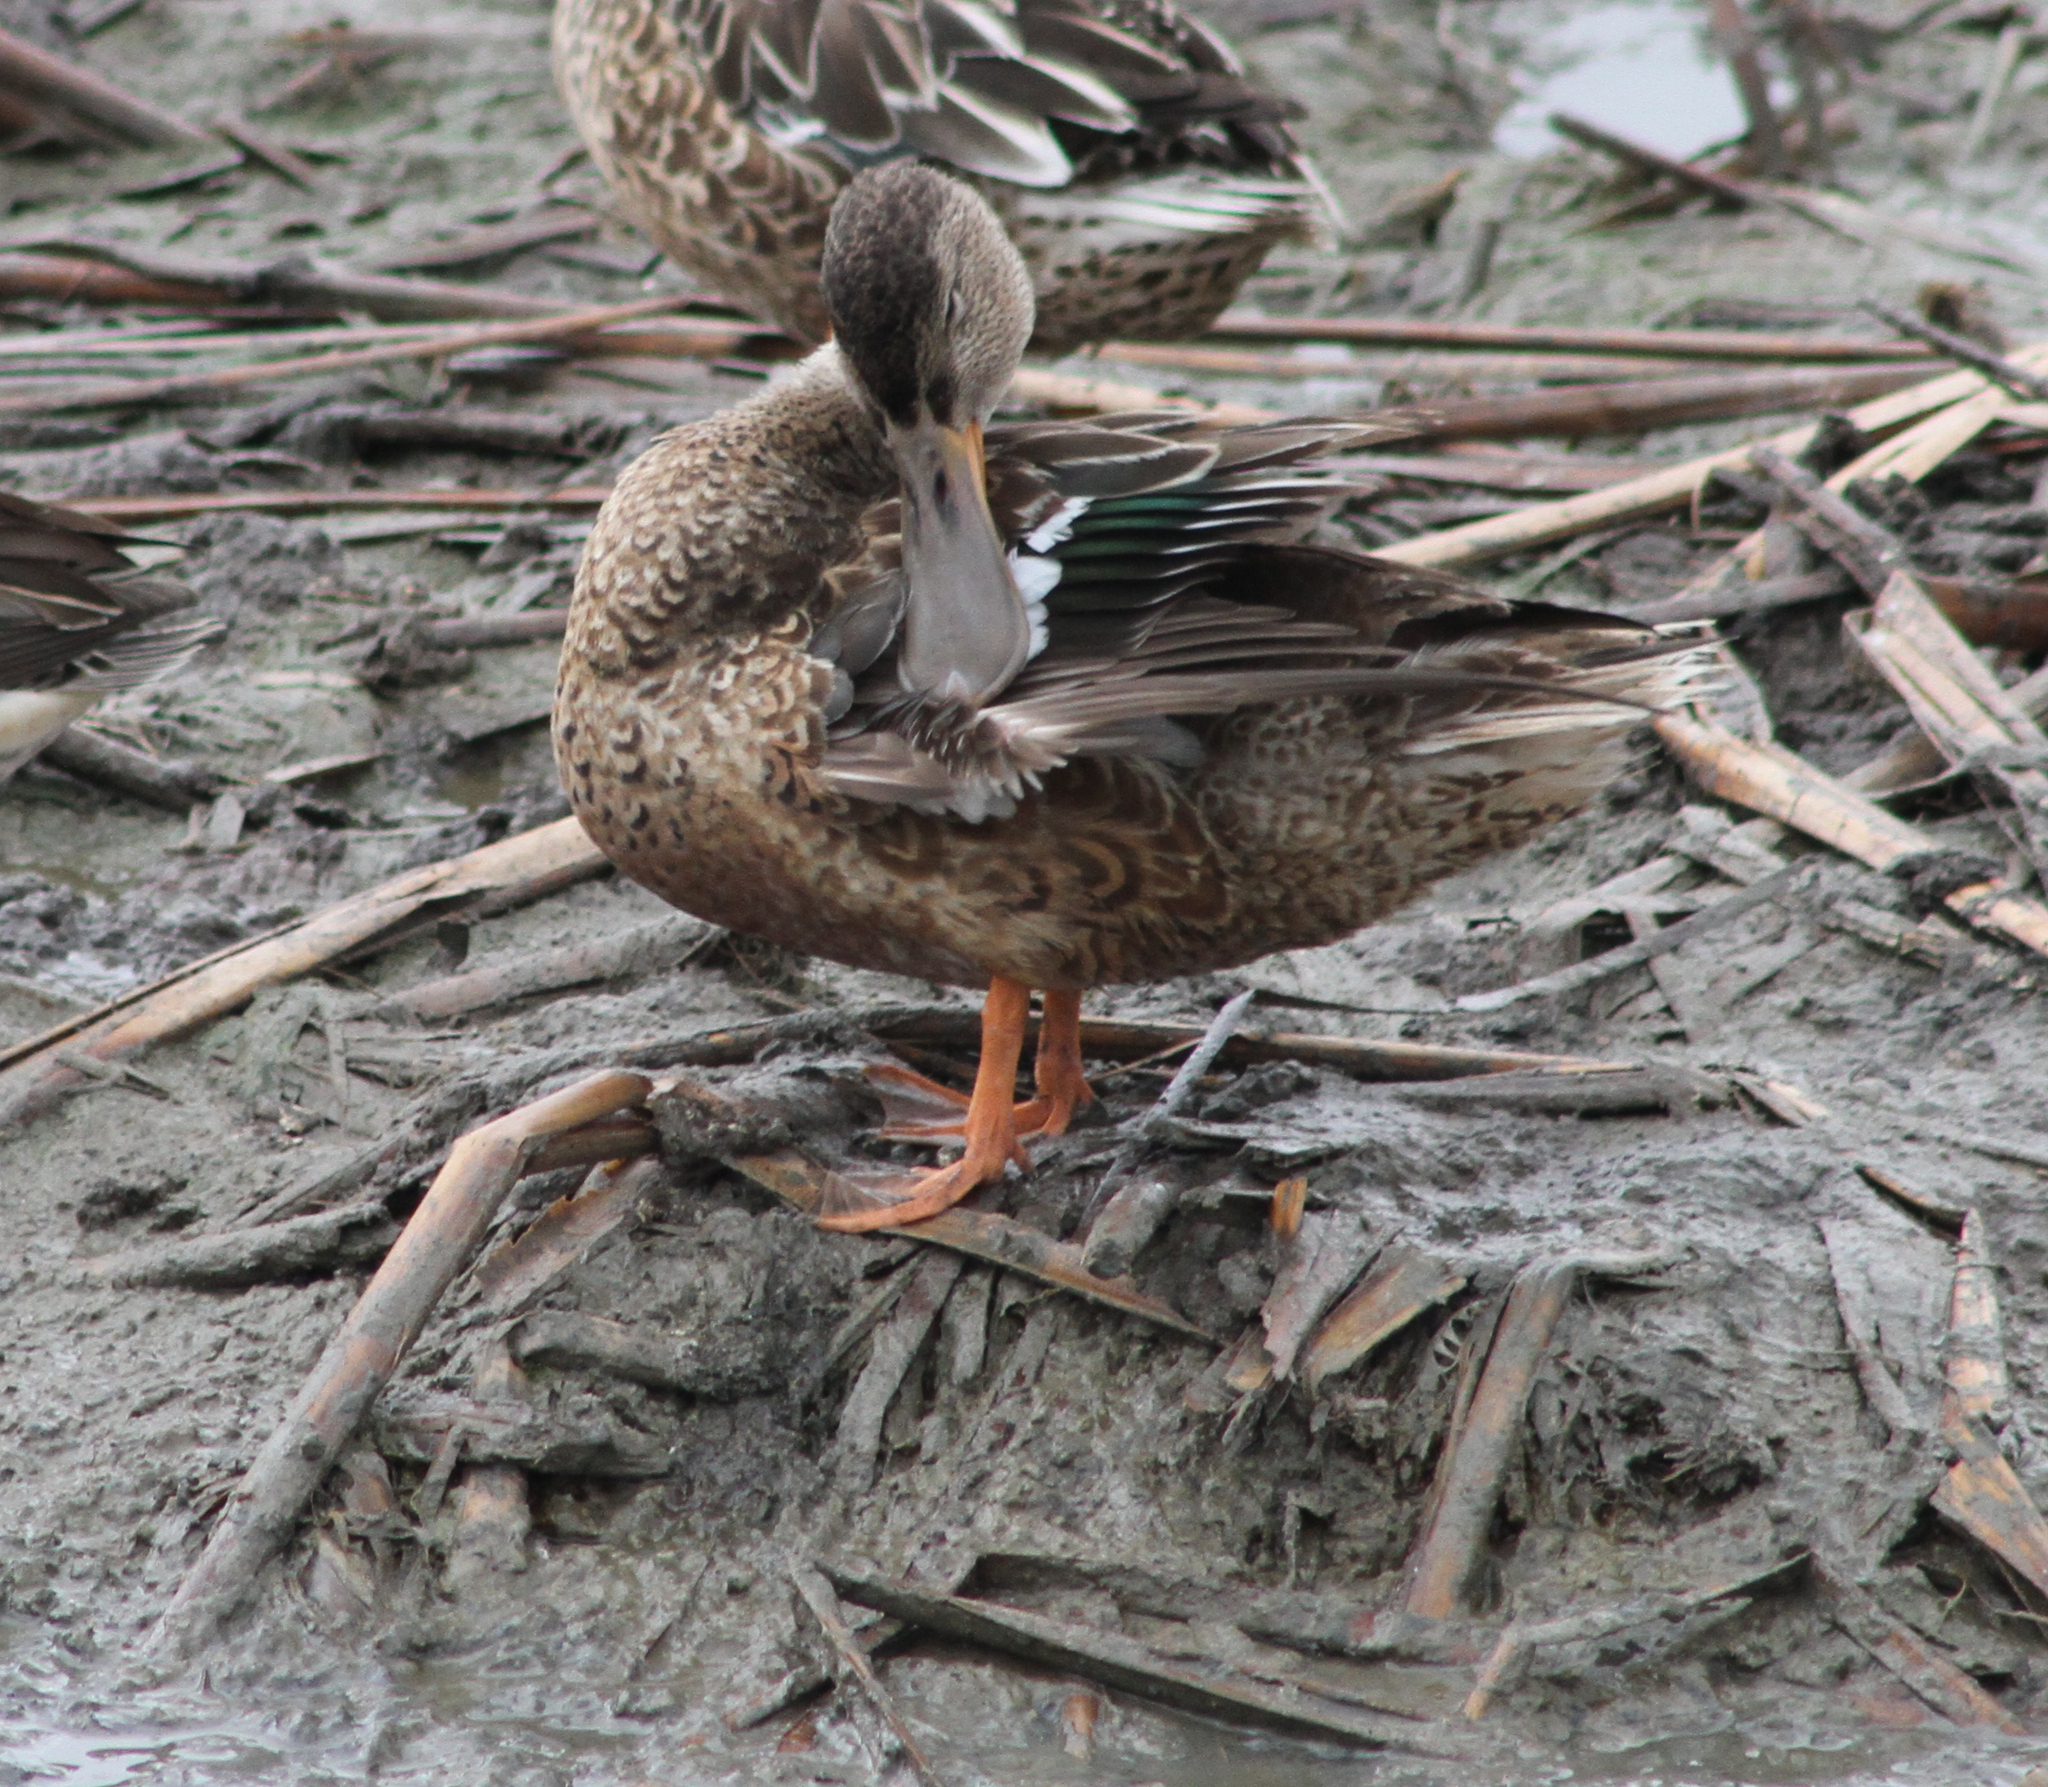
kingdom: Animalia
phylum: Chordata
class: Aves
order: Anseriformes
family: Anatidae
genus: Spatula
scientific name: Spatula clypeata
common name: Northern shoveler
